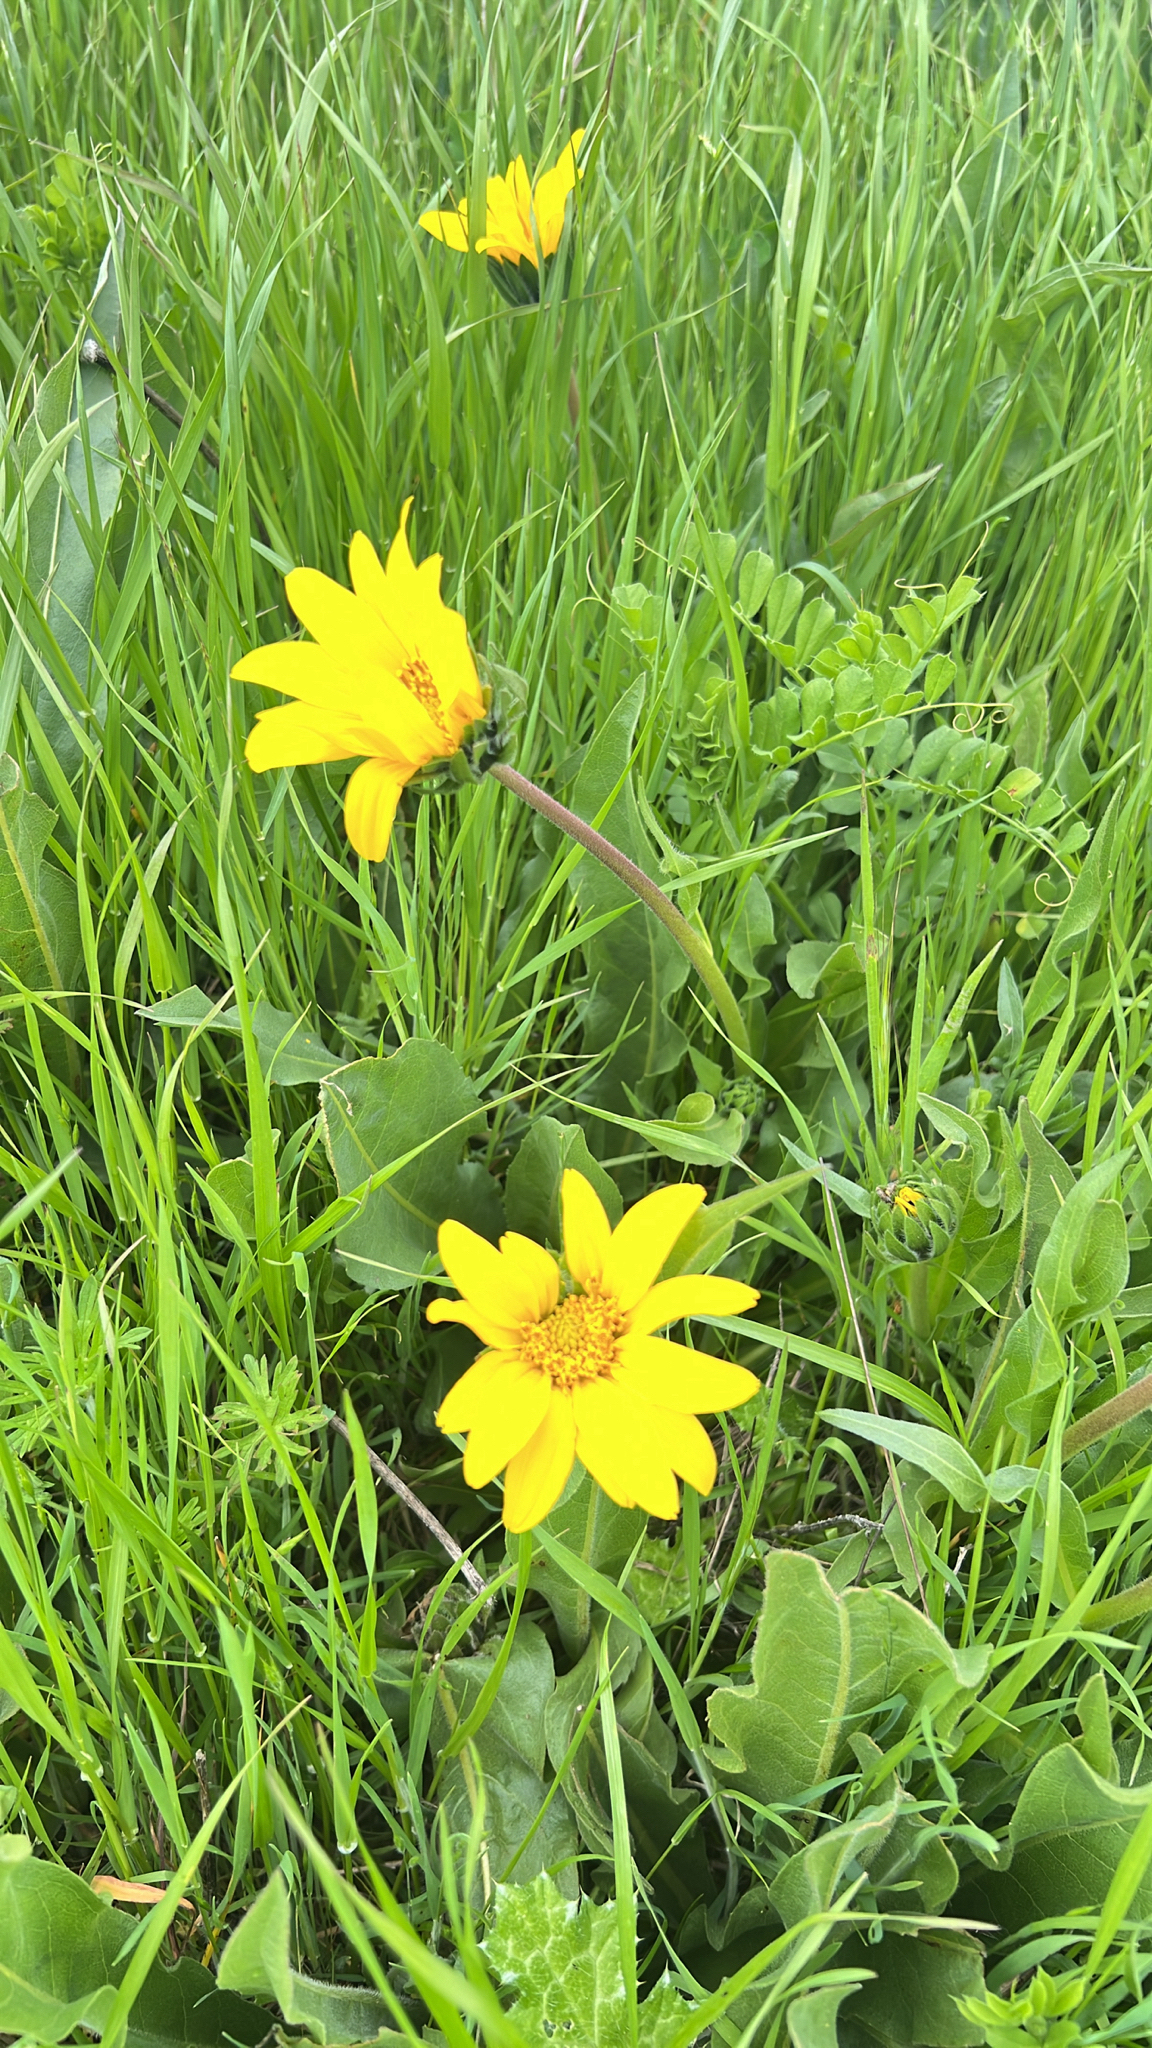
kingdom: Plantae
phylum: Tracheophyta
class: Magnoliopsida
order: Asterales
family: Asteraceae
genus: Wyethia
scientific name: Wyethia angustifolia
